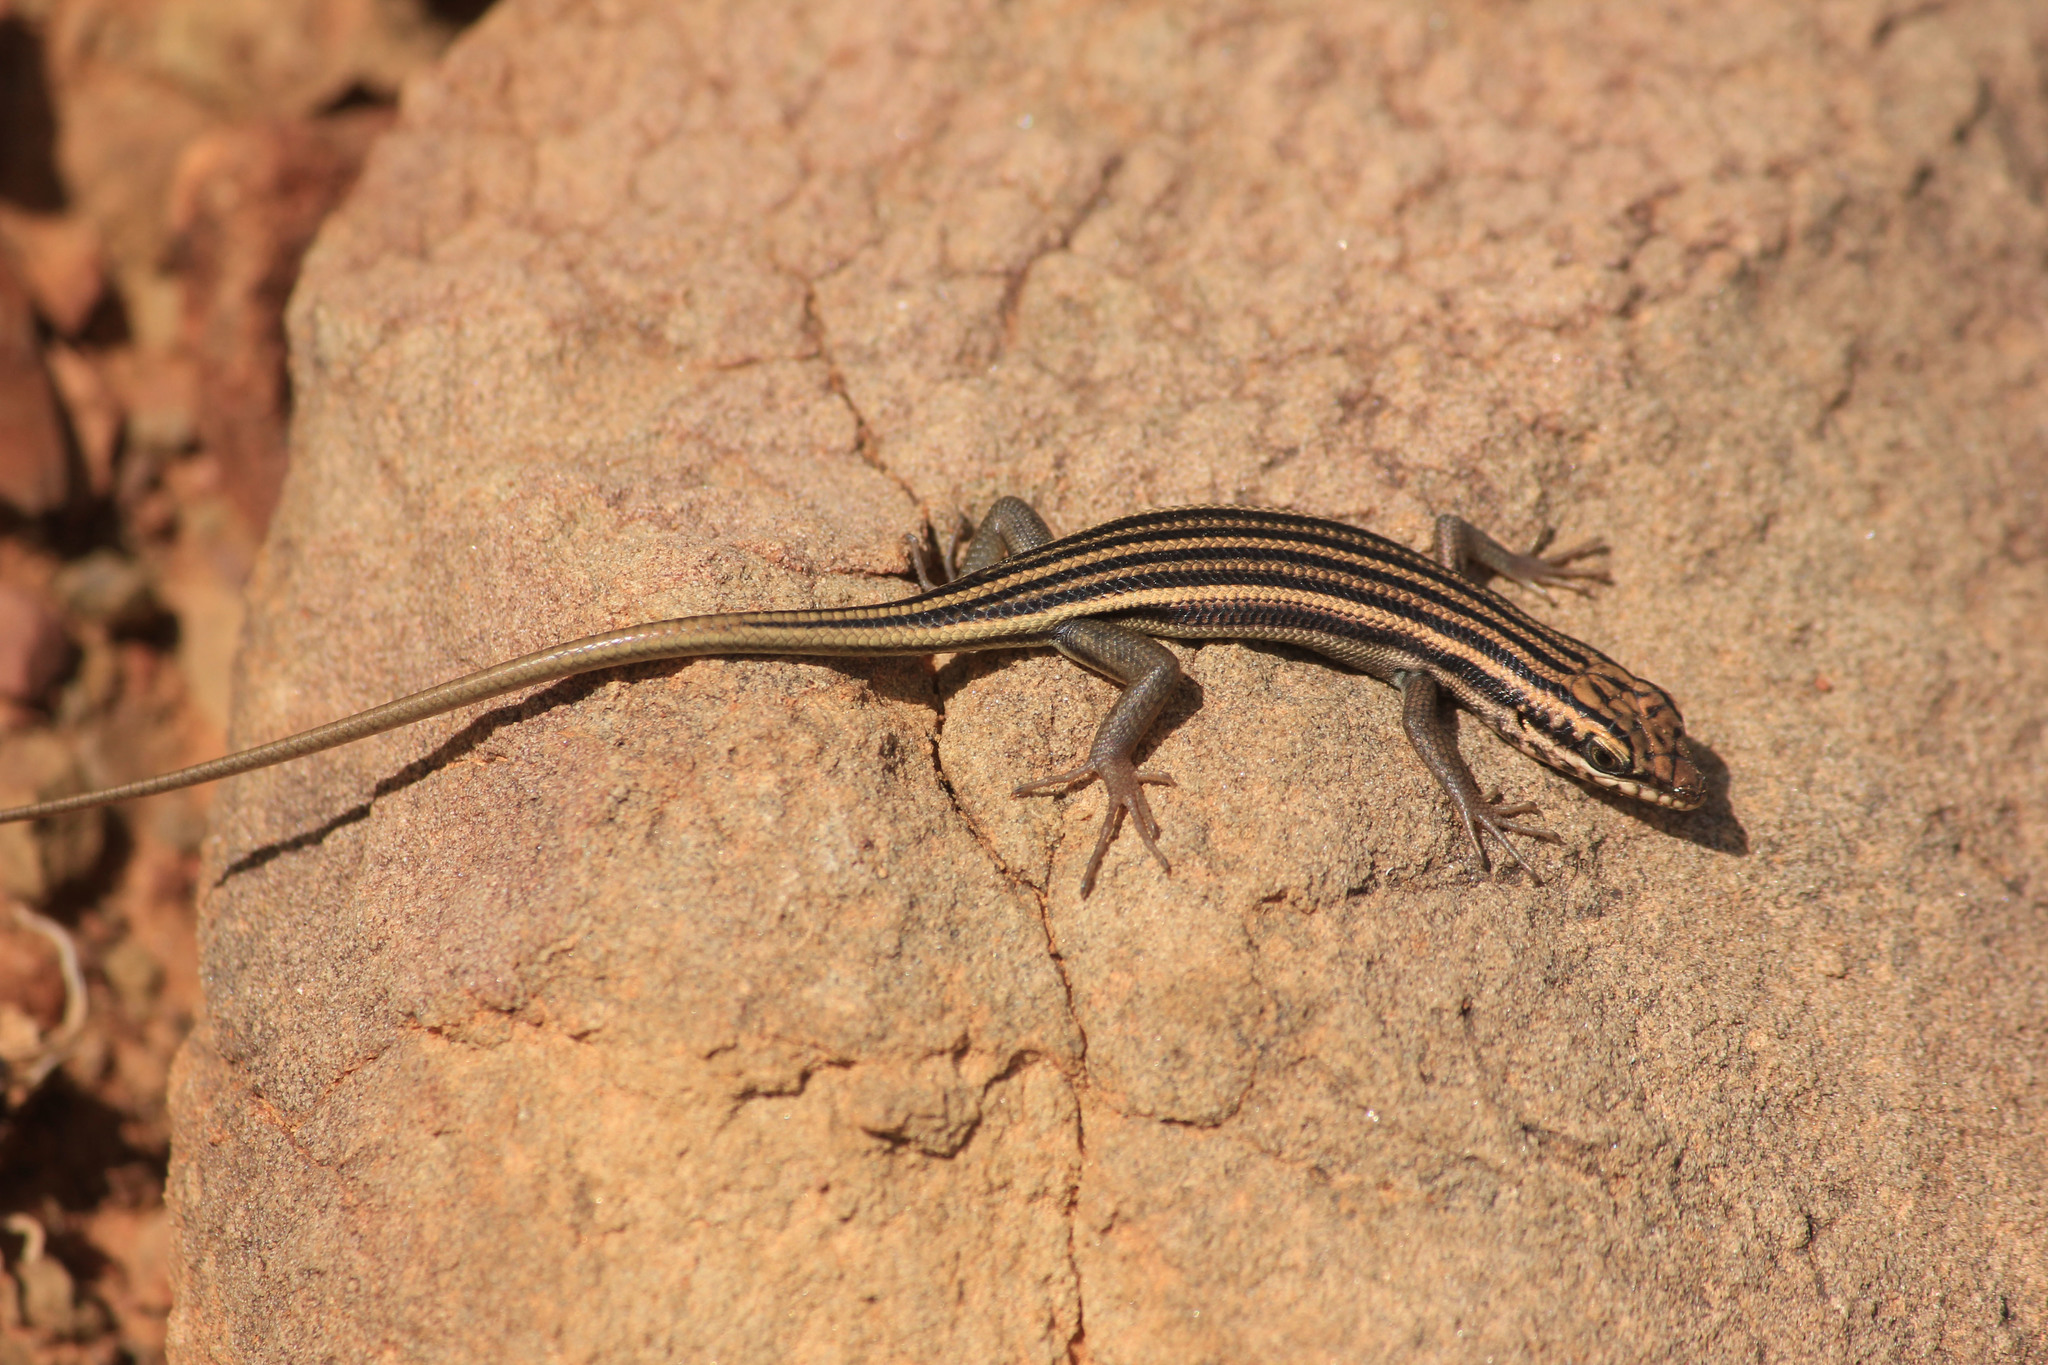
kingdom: Animalia
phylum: Chordata
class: Squamata
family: Scincidae
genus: Trachylepis
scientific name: Trachylepis sulcata
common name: Western rock skink
